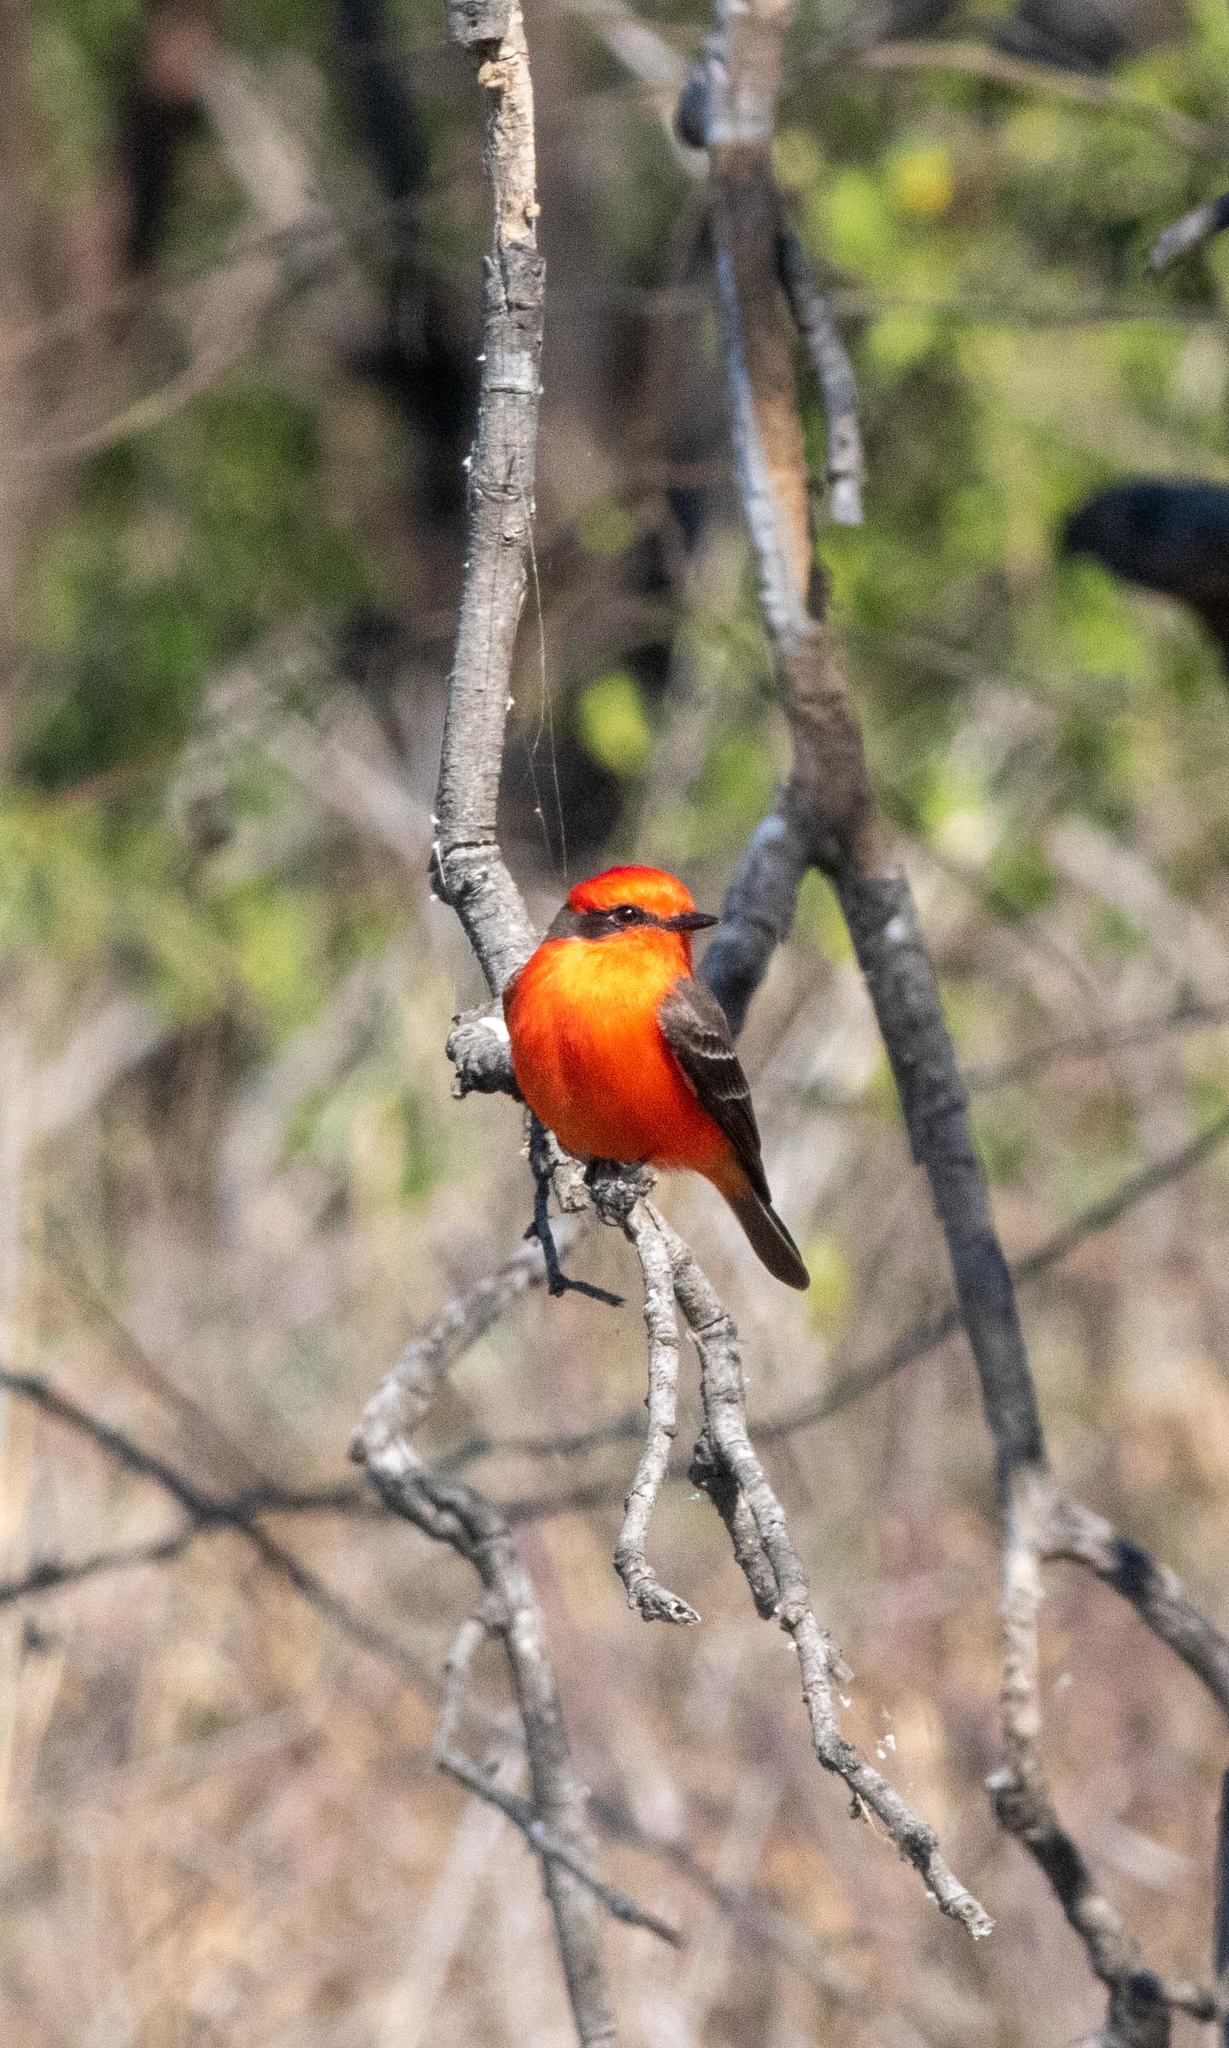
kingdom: Animalia
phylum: Chordata
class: Aves
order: Passeriformes
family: Tyrannidae
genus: Pyrocephalus
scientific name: Pyrocephalus rubinus
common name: Vermilion flycatcher
